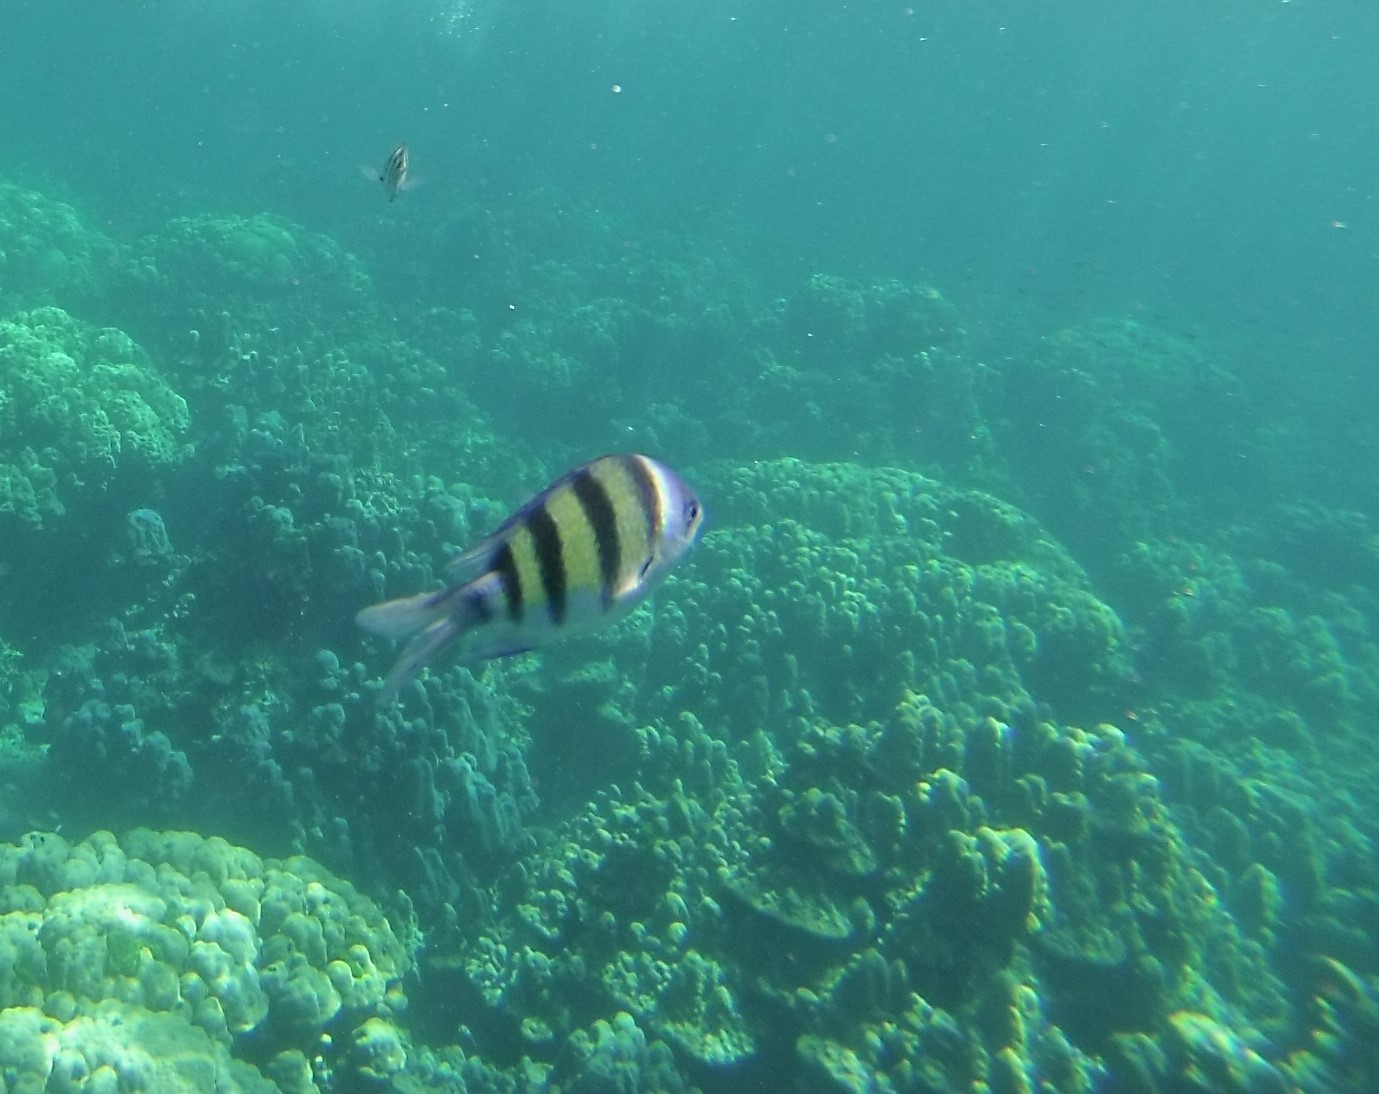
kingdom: Animalia
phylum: Chordata
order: Perciformes
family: Pomacentridae
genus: Abudefduf
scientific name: Abudefduf vaigiensis
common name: Indo-pacific sergeant
